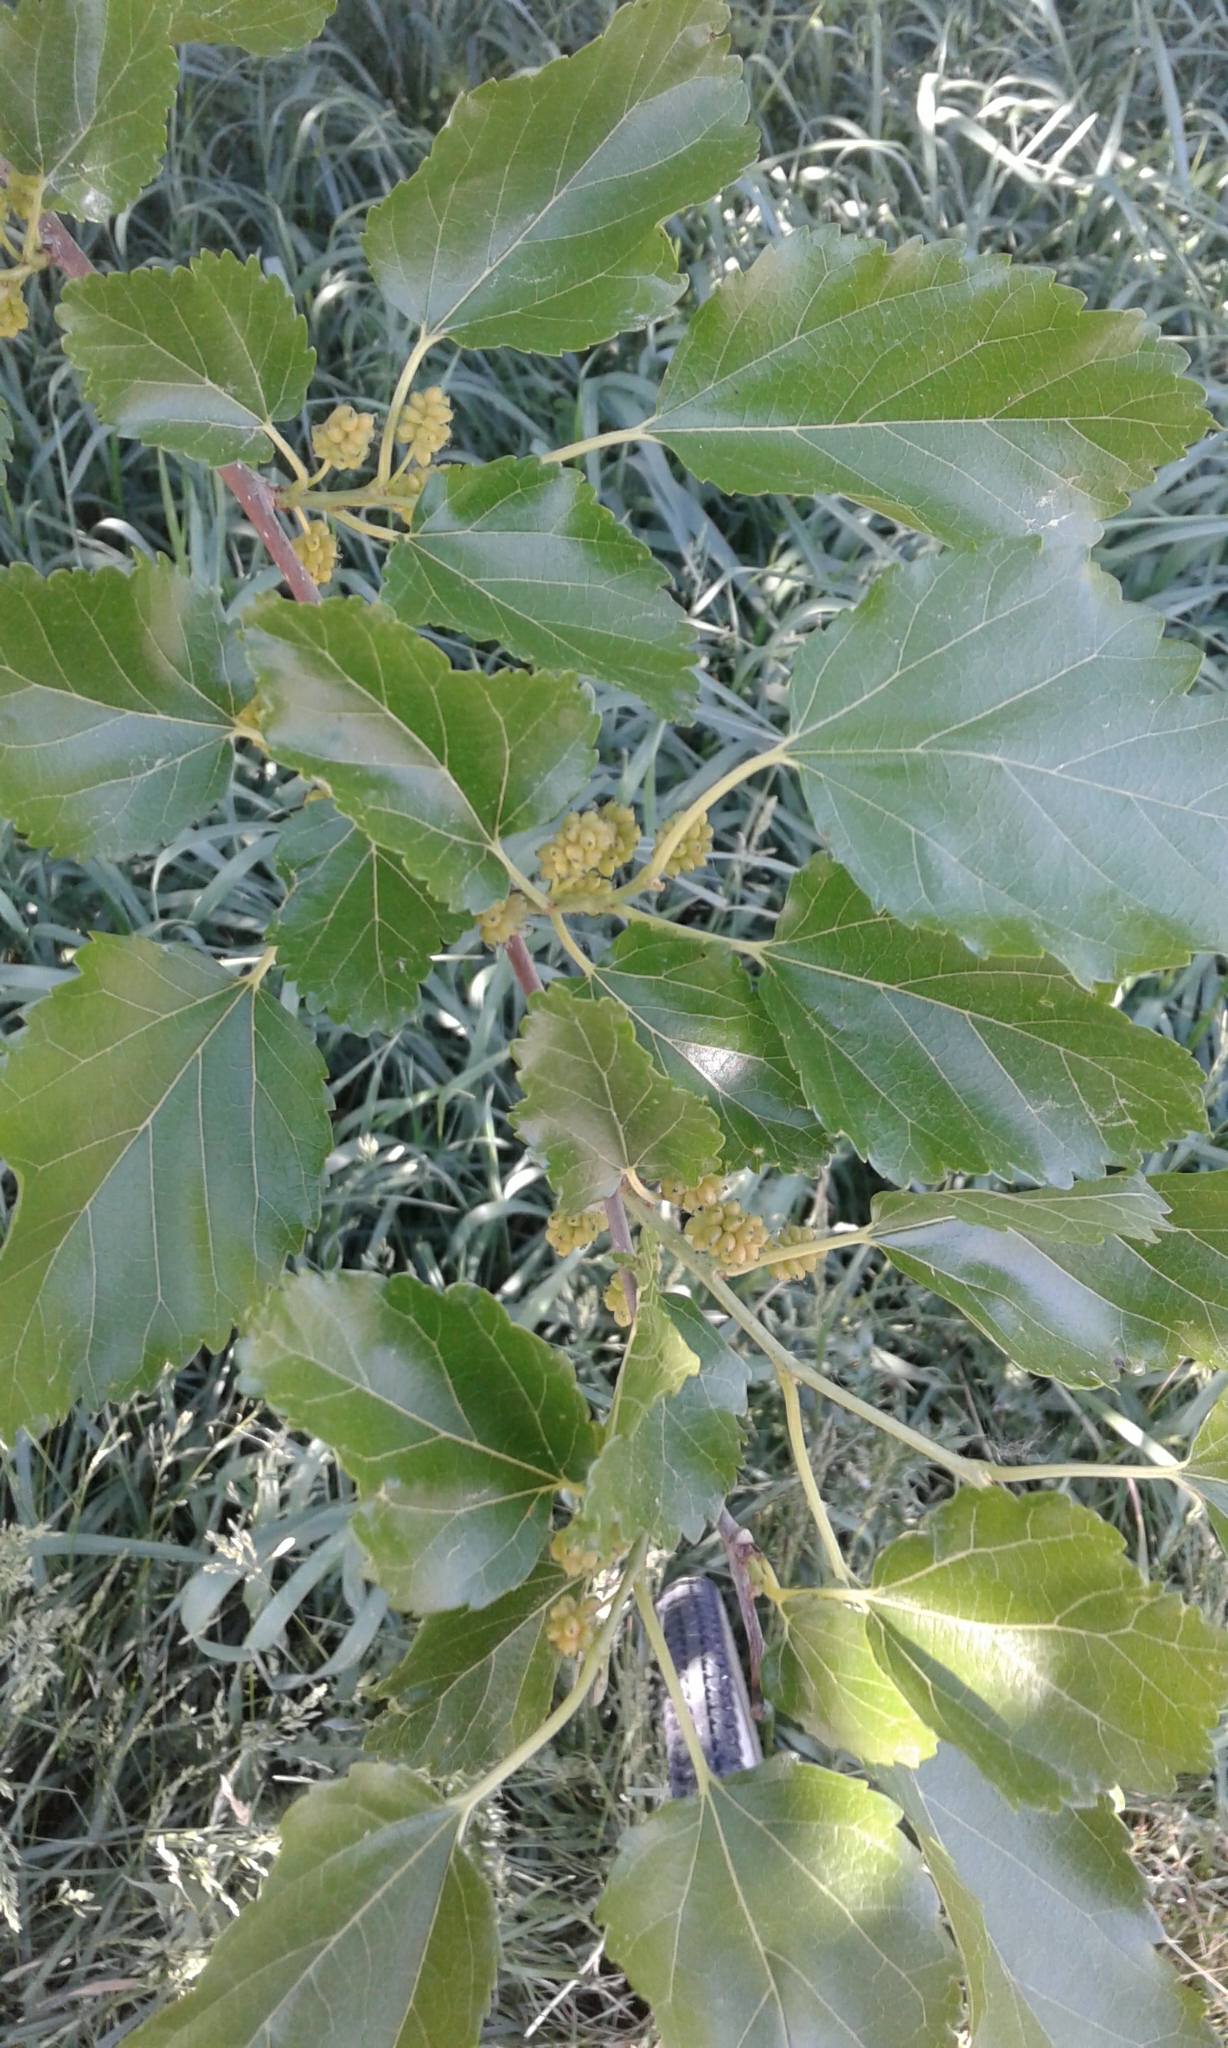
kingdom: Plantae
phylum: Tracheophyta
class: Magnoliopsida
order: Rosales
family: Moraceae
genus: Morus
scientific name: Morus alba
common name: White mulberry
